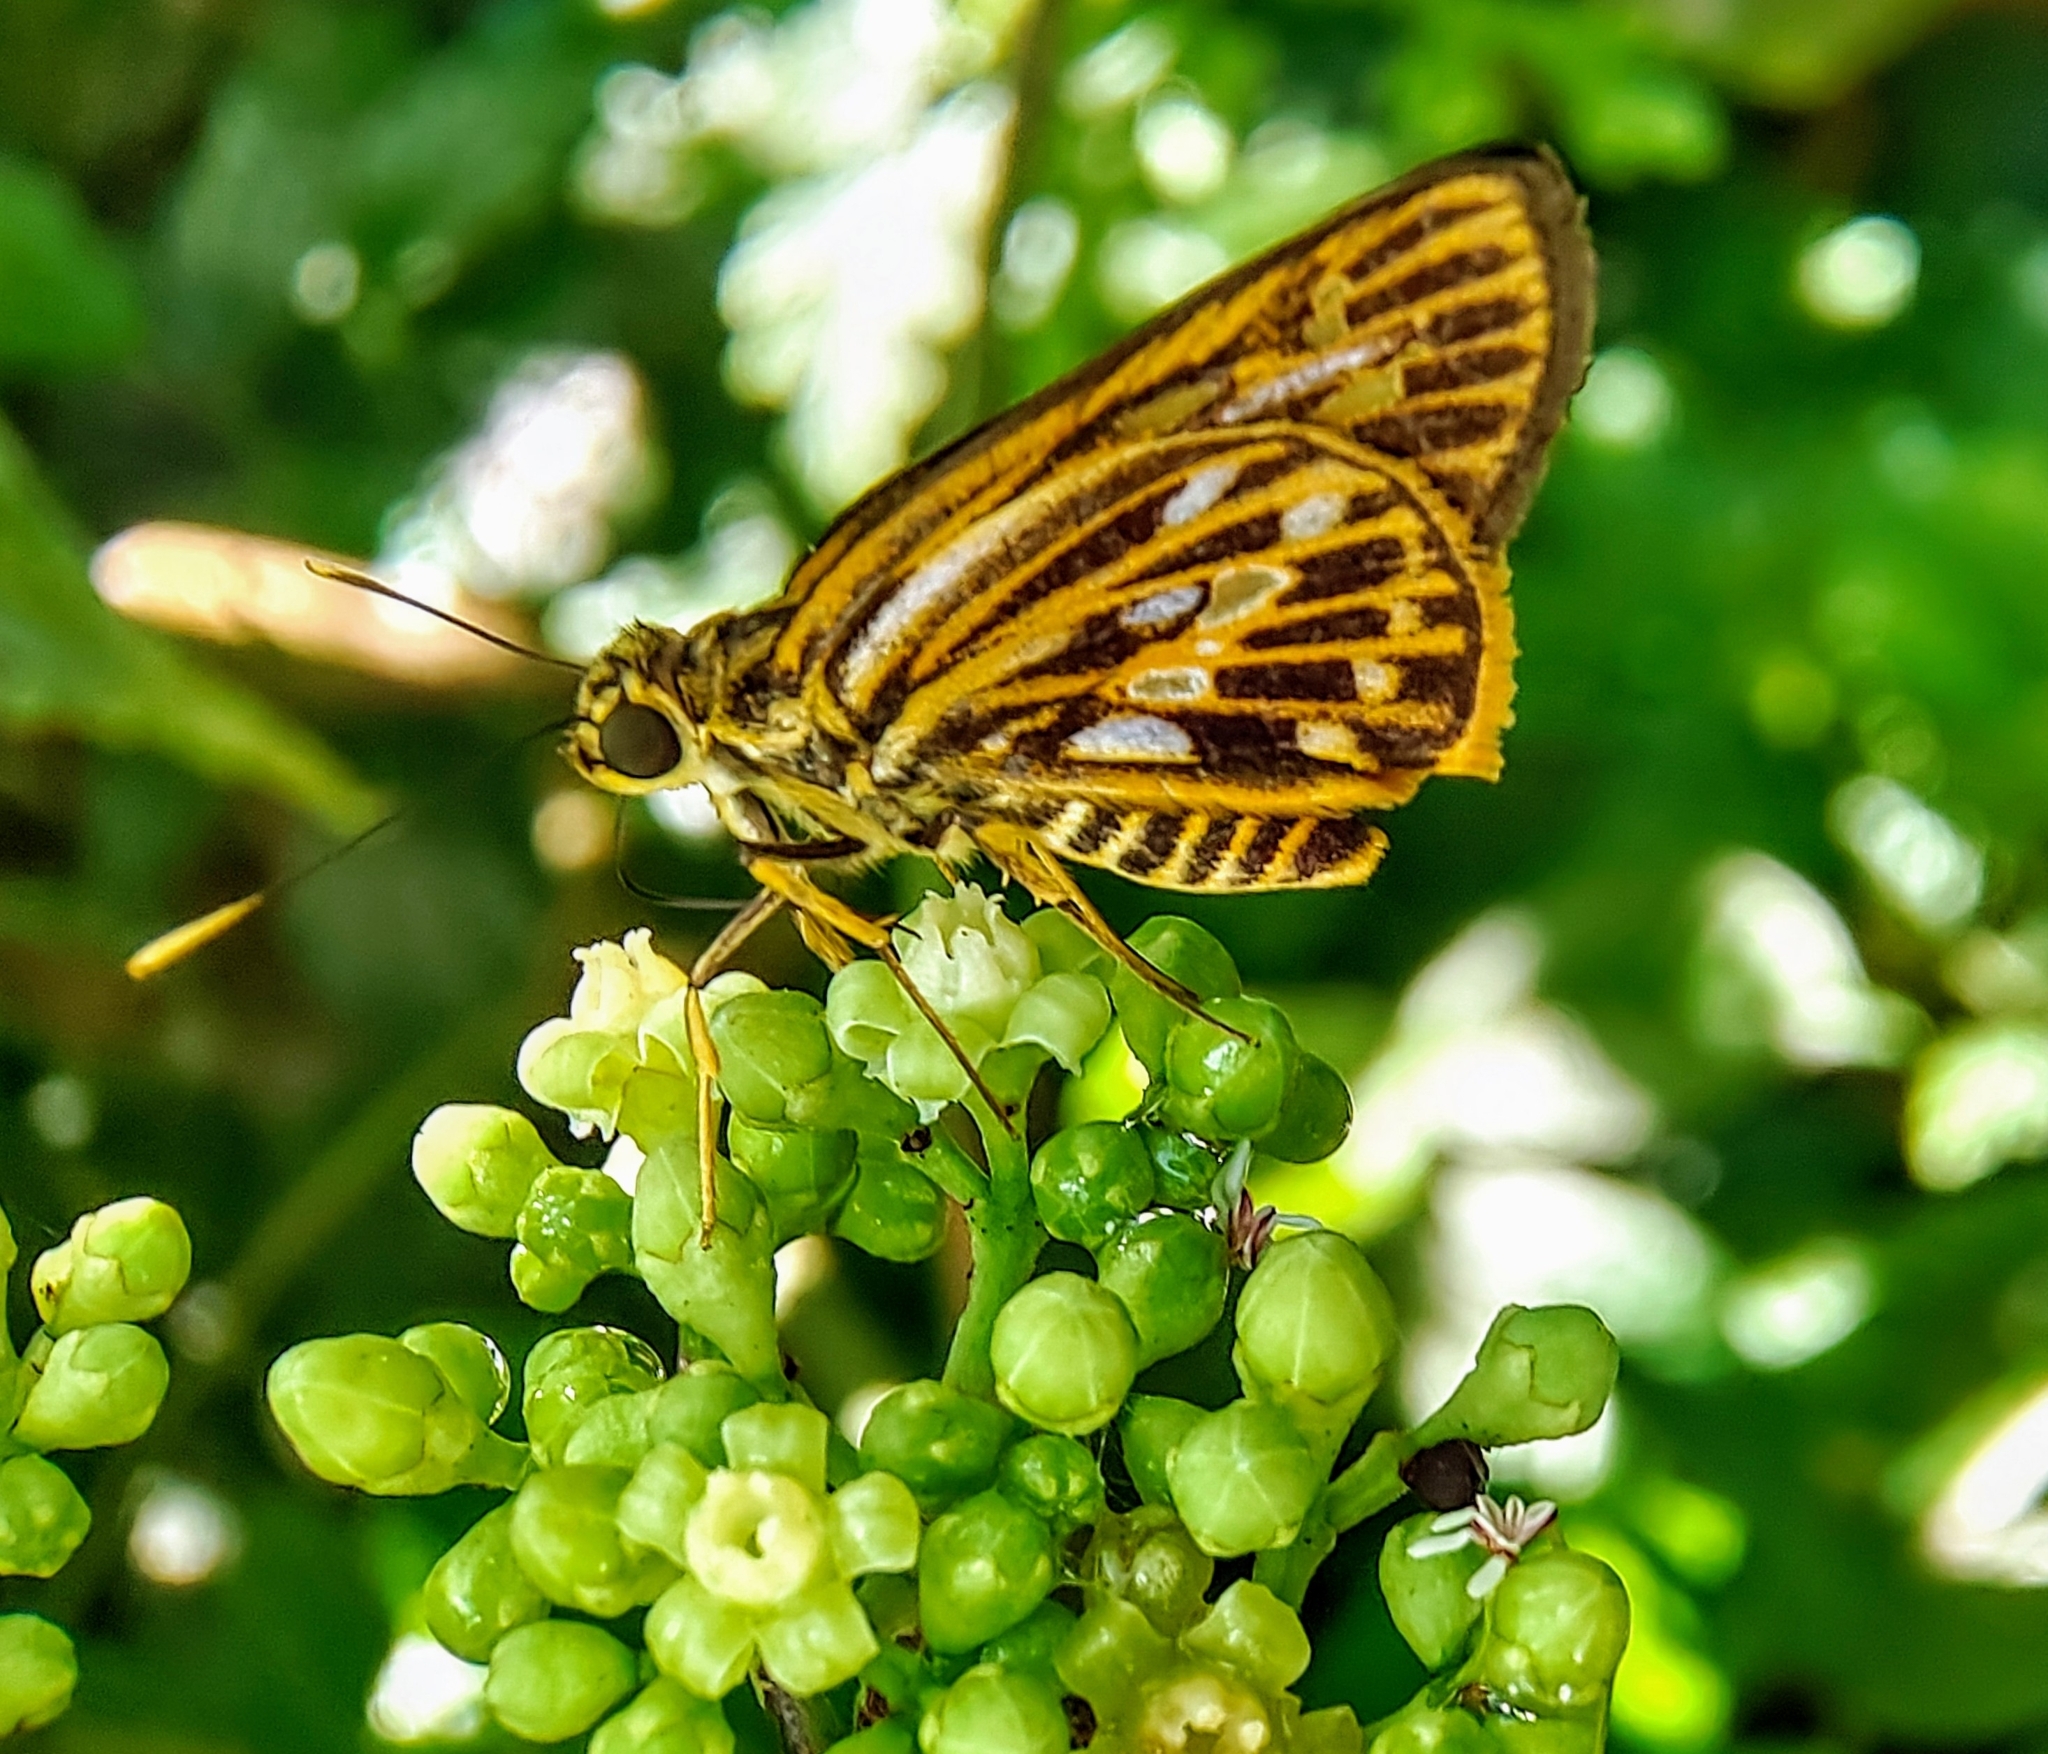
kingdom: Animalia
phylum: Arthropoda
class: Insecta
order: Lepidoptera
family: Hesperiidae
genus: Pyroneura
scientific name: Pyroneura latoia
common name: Yellow vein lancer
